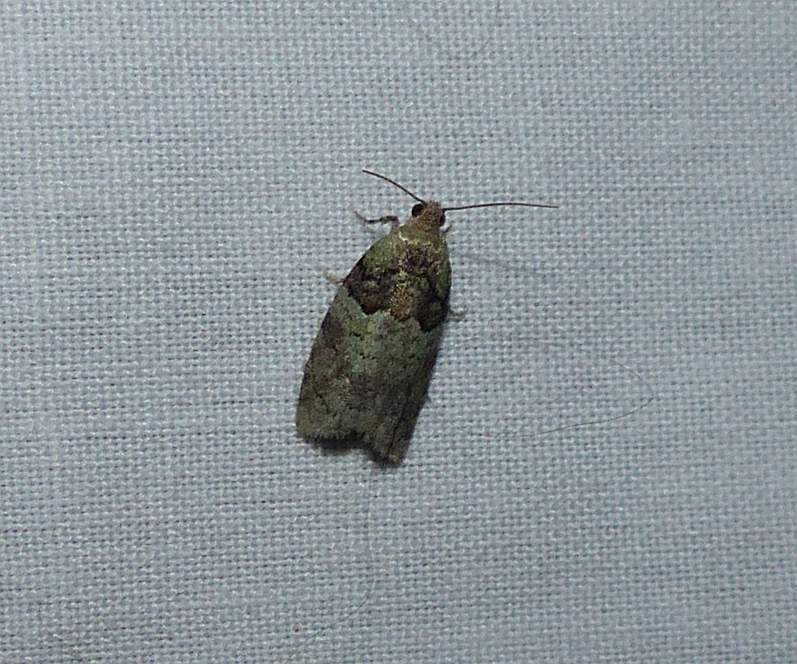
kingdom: Animalia
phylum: Arthropoda
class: Insecta
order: Lepidoptera
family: Tortricidae
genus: Epinotia
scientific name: Epinotia medioviridana
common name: Raspberry leaf-roller moth
